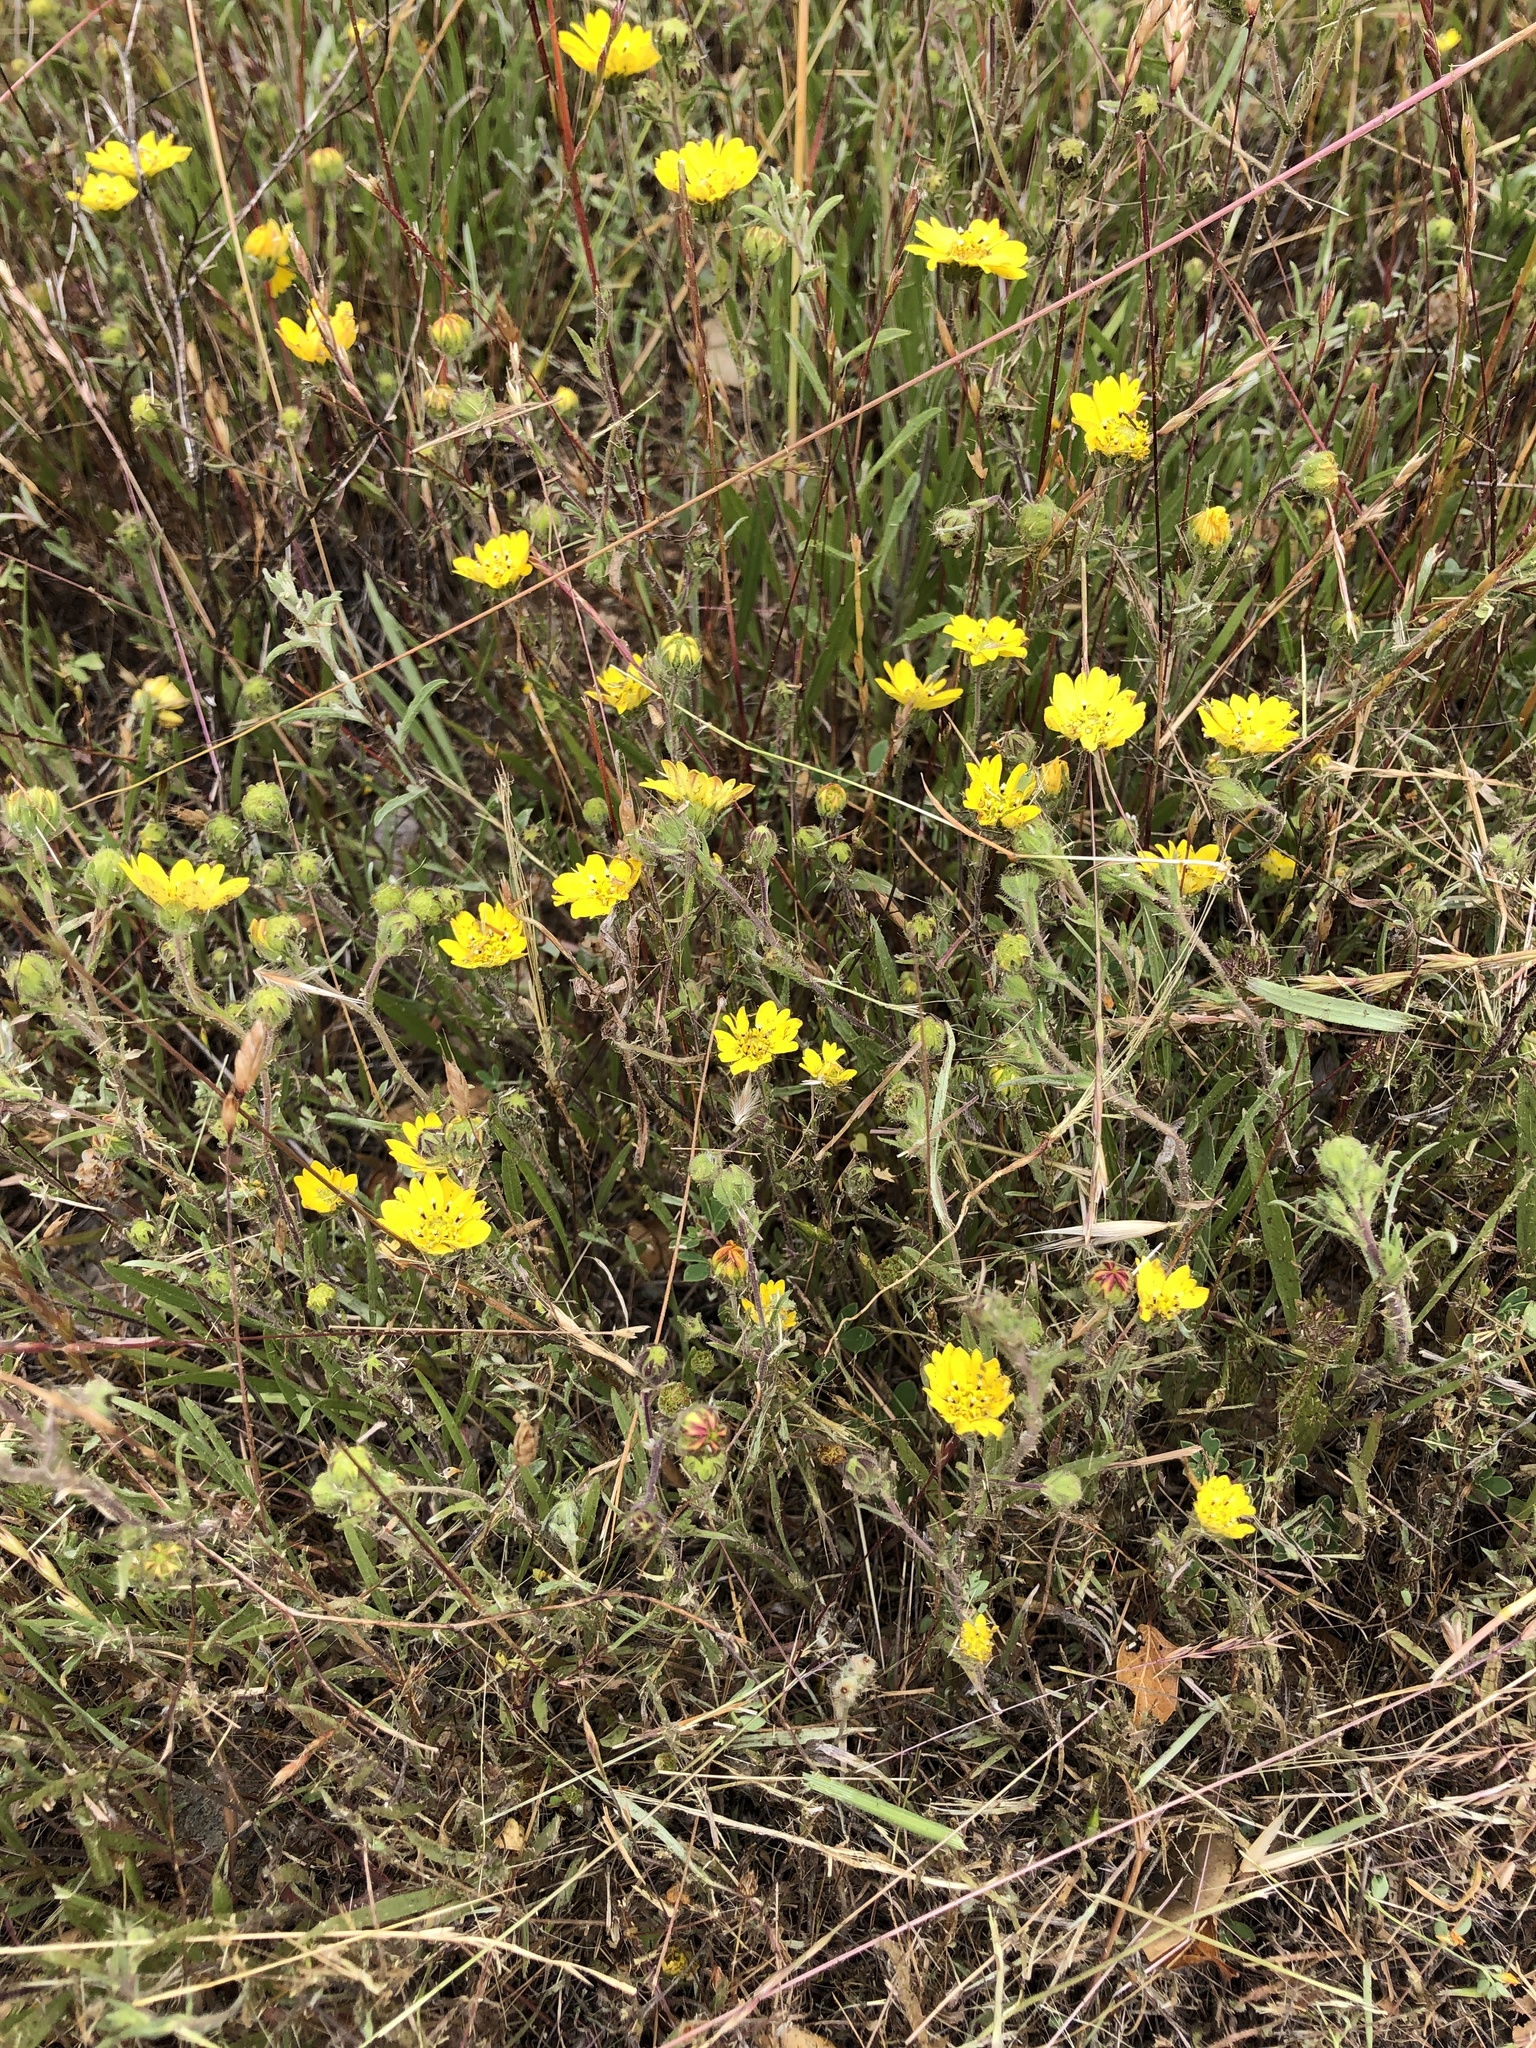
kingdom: Plantae
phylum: Tracheophyta
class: Magnoliopsida
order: Asterales
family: Asteraceae
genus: Hemizonia
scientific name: Hemizonia congesta
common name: Hayfield tarweed
